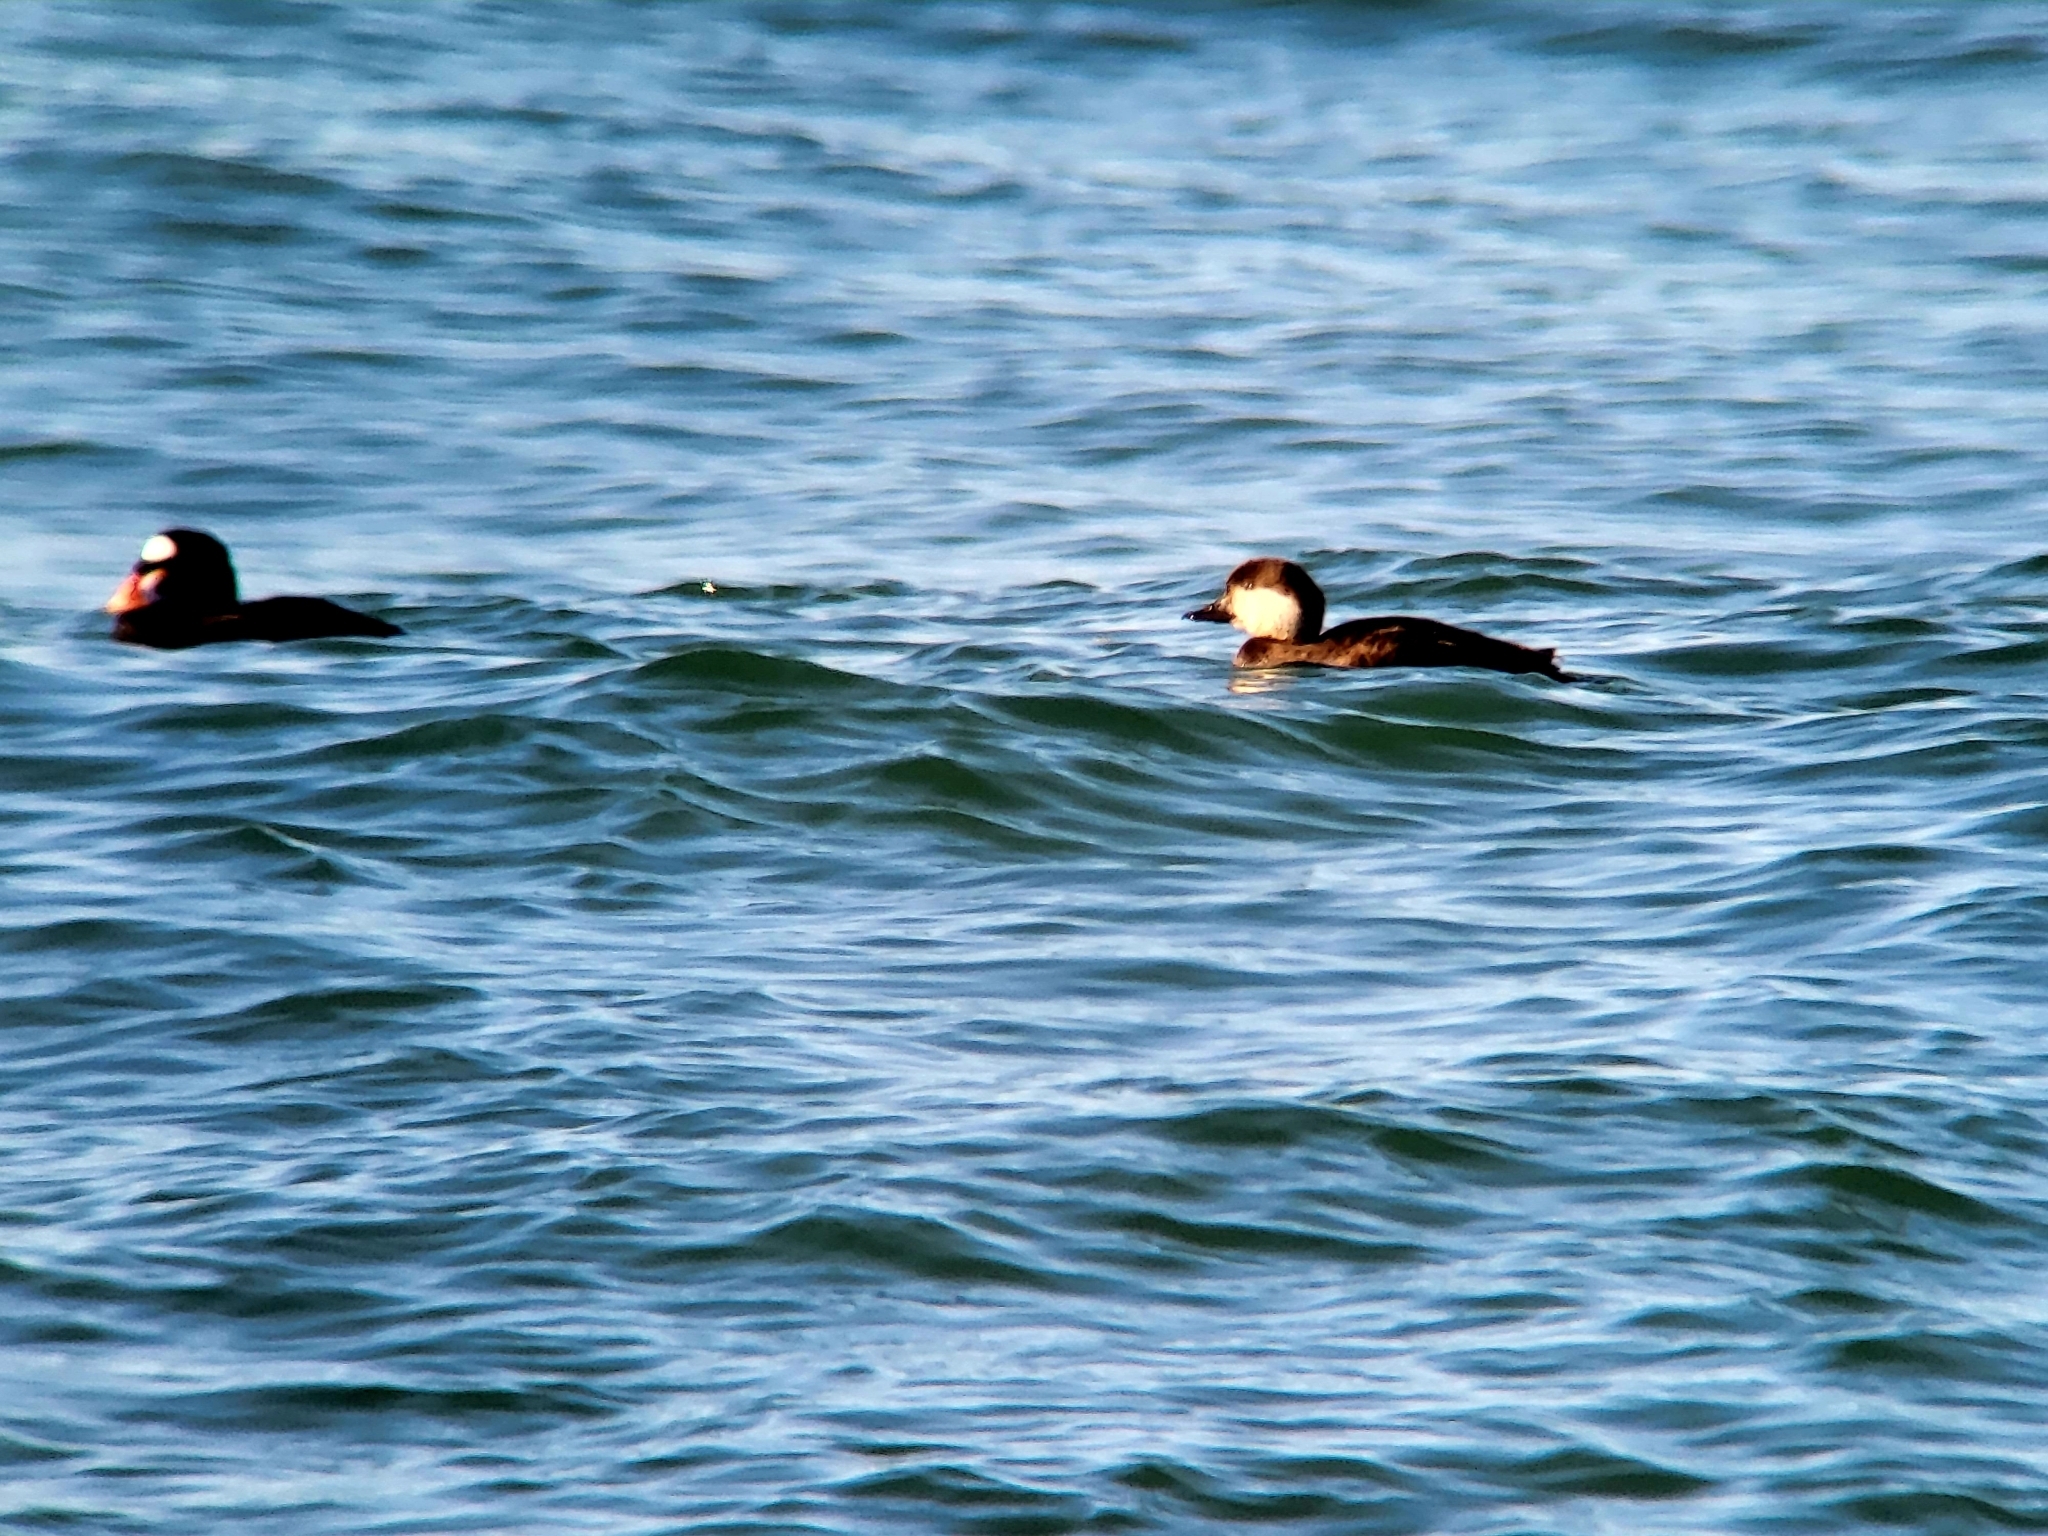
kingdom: Animalia
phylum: Chordata
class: Aves
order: Anseriformes
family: Anatidae
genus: Melanitta
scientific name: Melanitta americana
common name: Black scoter
